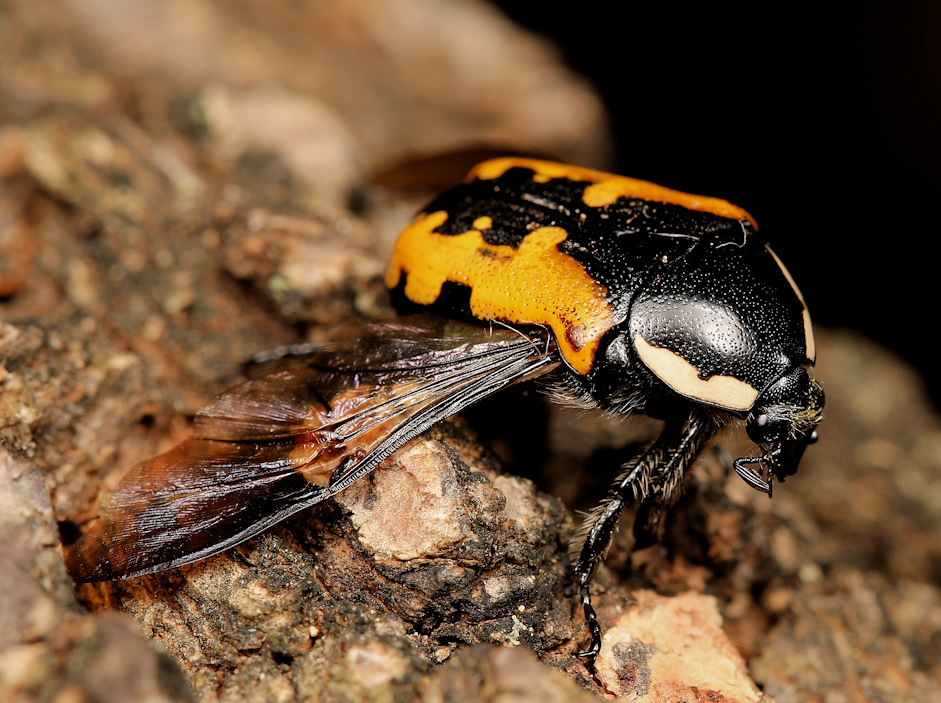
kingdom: Animalia
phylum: Arthropoda
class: Insecta
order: Coleoptera
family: Scarabaeidae
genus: Phoxomela
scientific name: Phoxomela umbrosa
